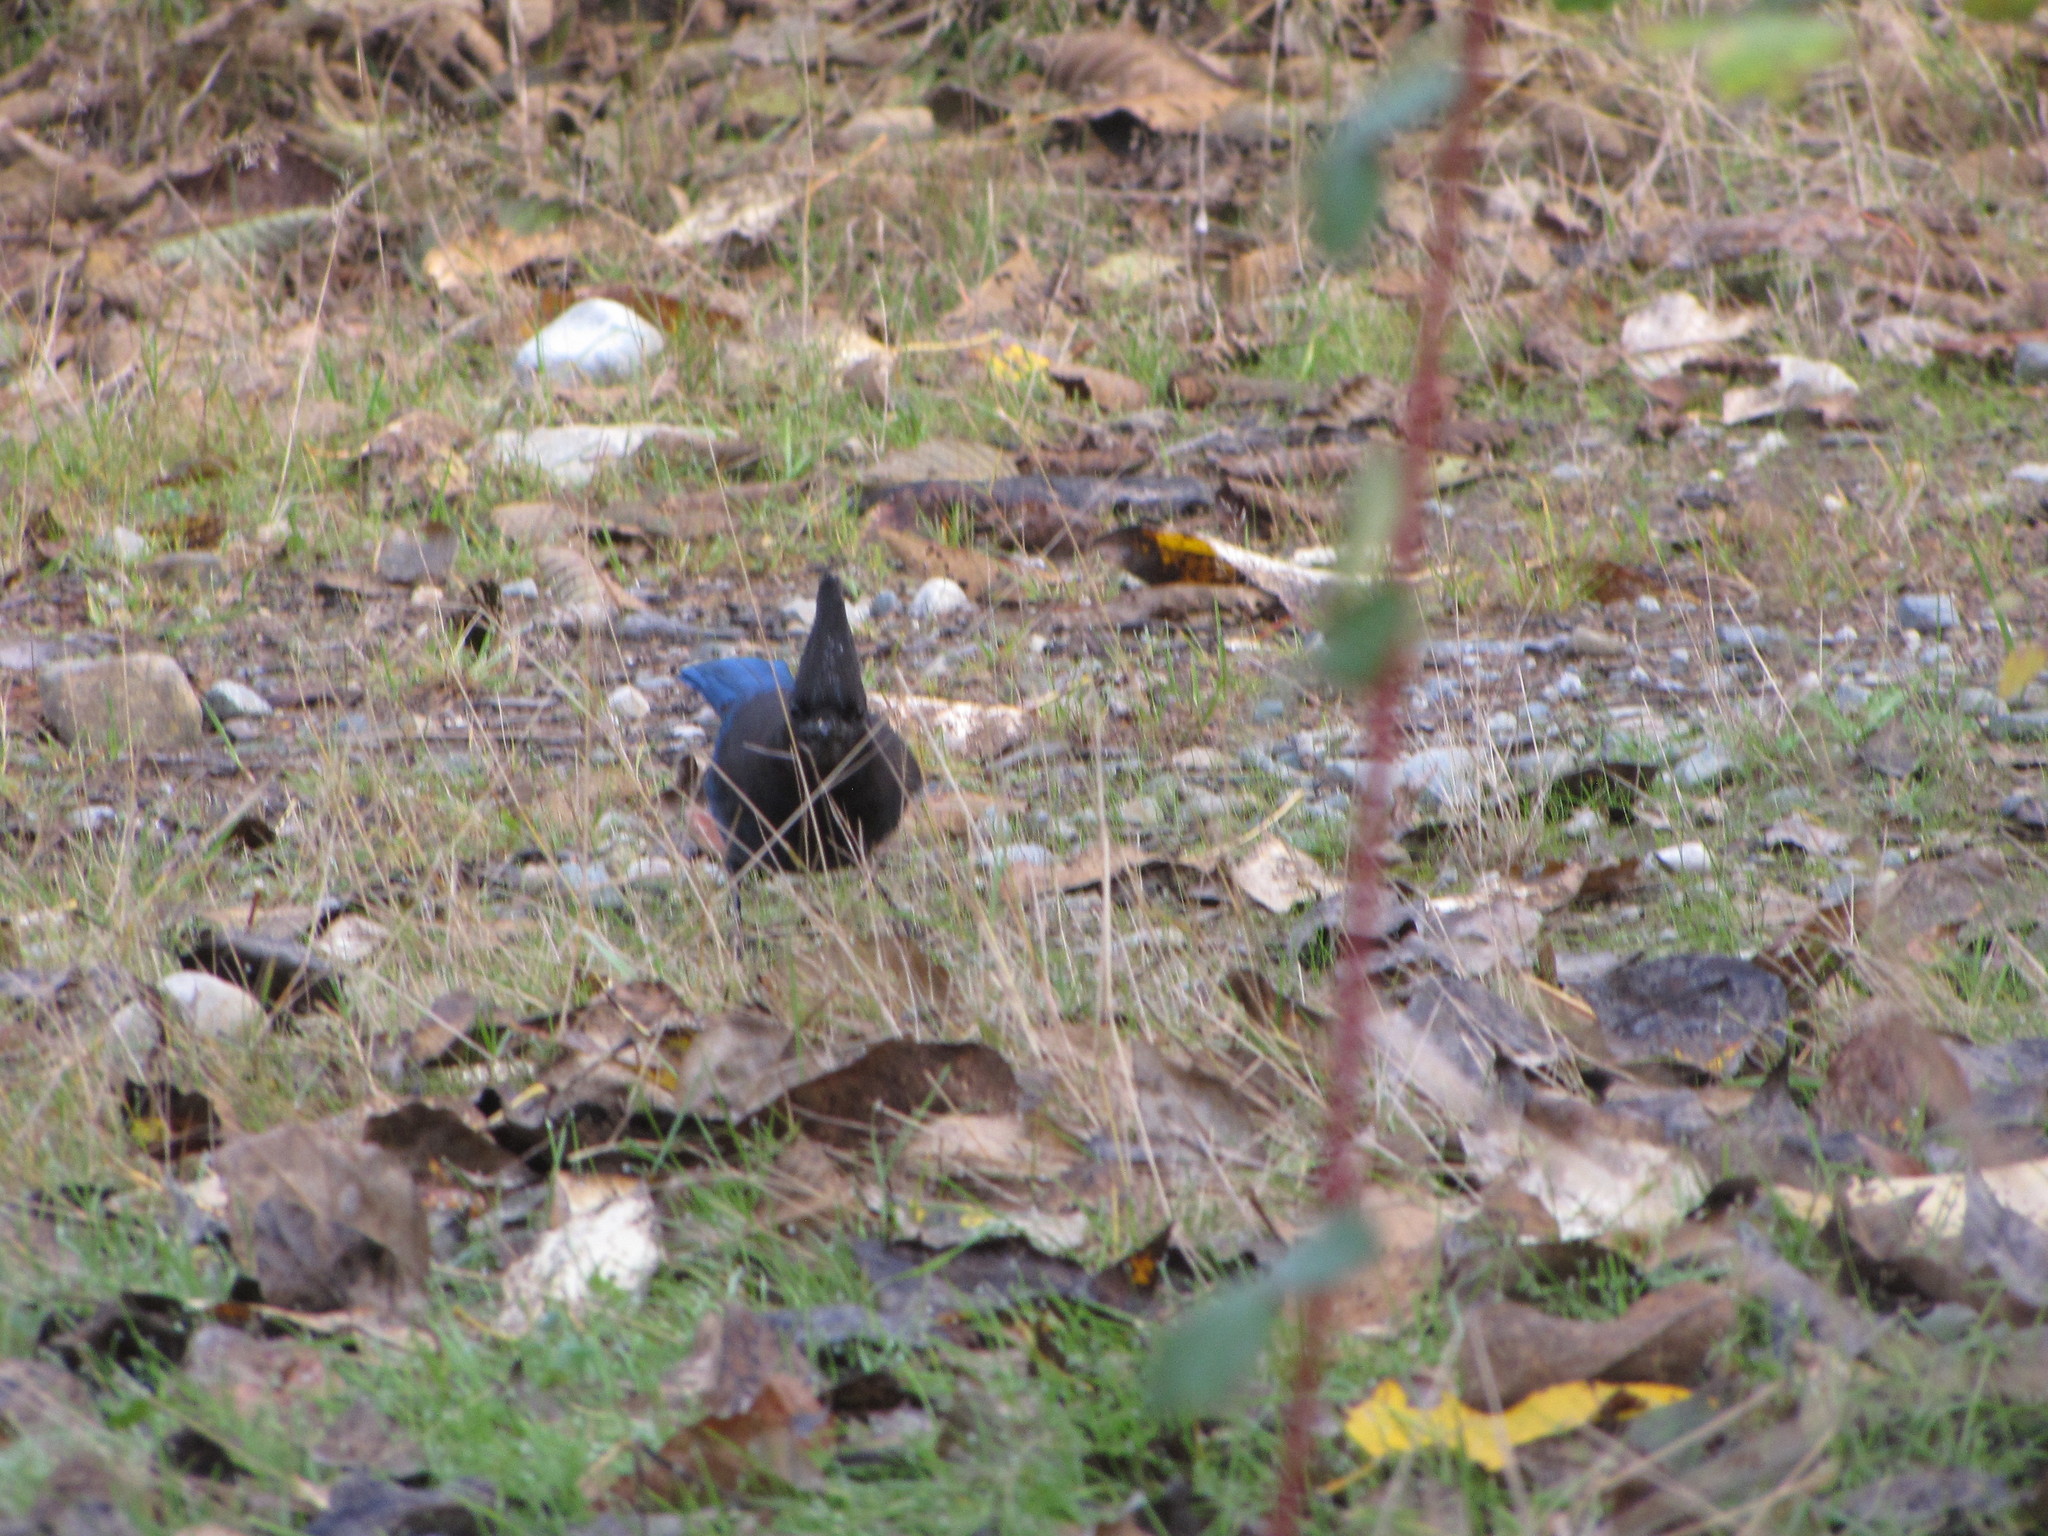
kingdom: Animalia
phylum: Chordata
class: Aves
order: Passeriformes
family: Corvidae
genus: Cyanocitta
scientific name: Cyanocitta stelleri
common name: Steller's jay
